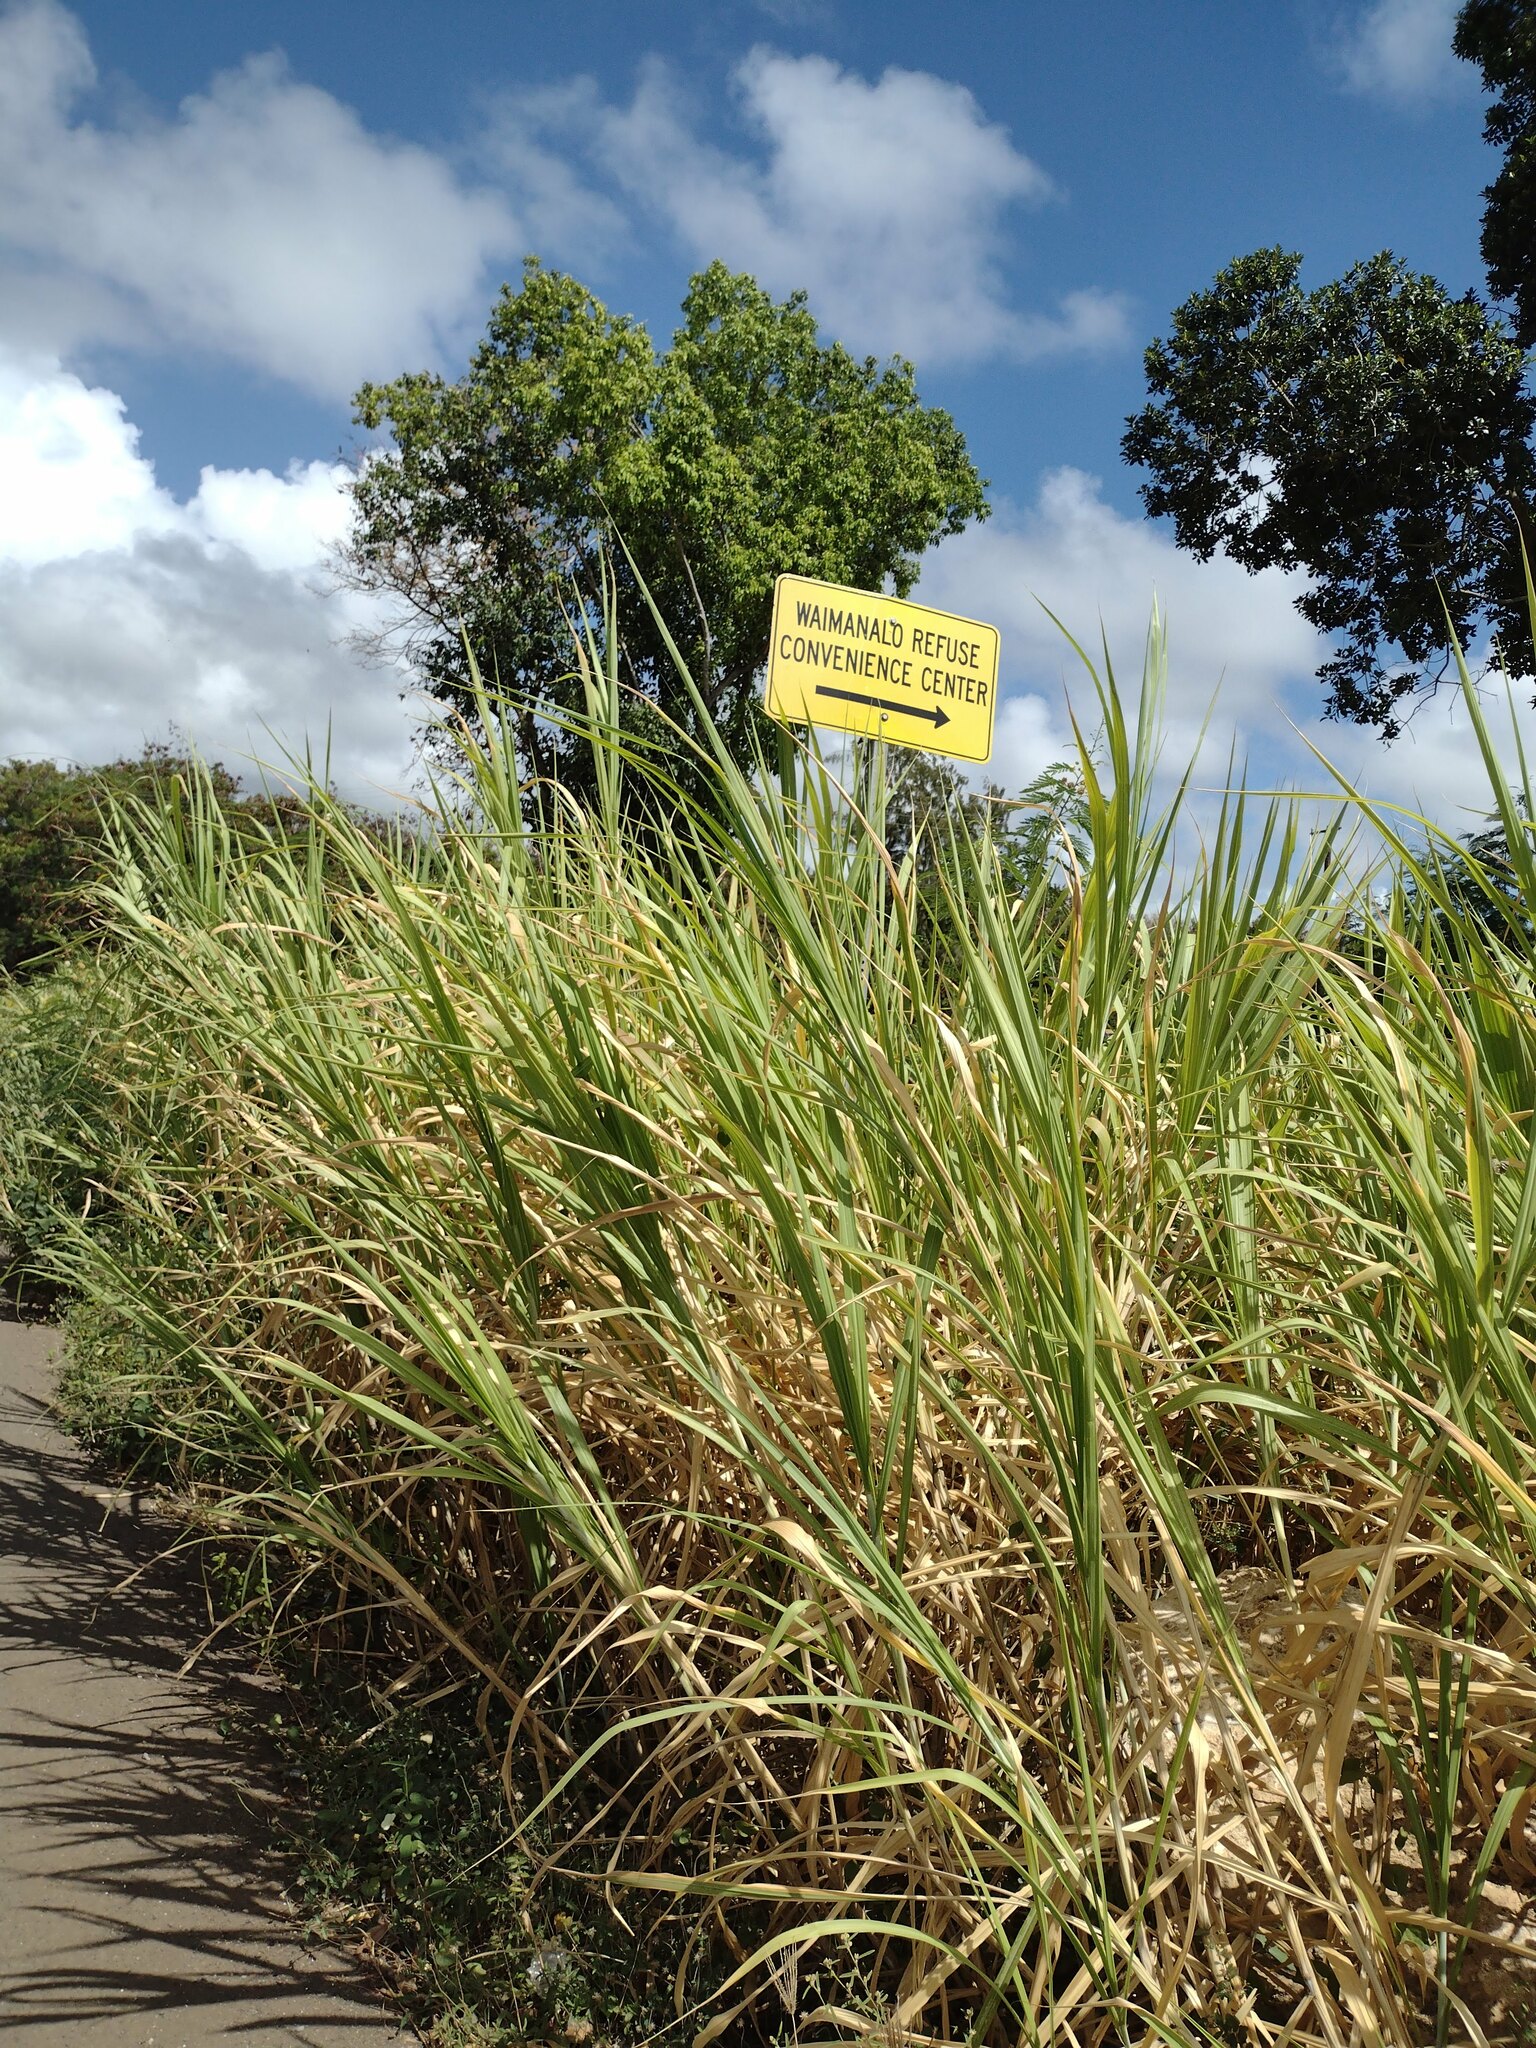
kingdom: Plantae
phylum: Tracheophyta
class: Liliopsida
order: Poales
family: Poaceae
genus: Megathyrsus
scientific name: Megathyrsus maximus
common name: Guineagrass
